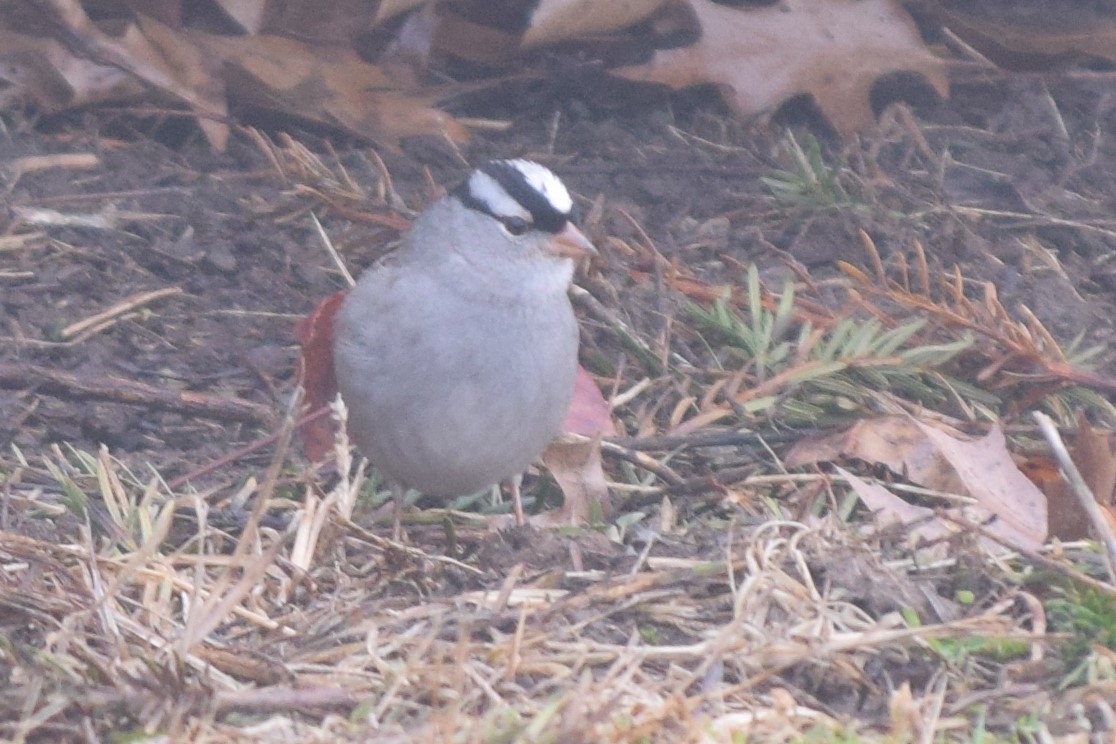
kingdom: Animalia
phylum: Chordata
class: Aves
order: Passeriformes
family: Passerellidae
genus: Zonotrichia
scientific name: Zonotrichia leucophrys
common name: White-crowned sparrow
